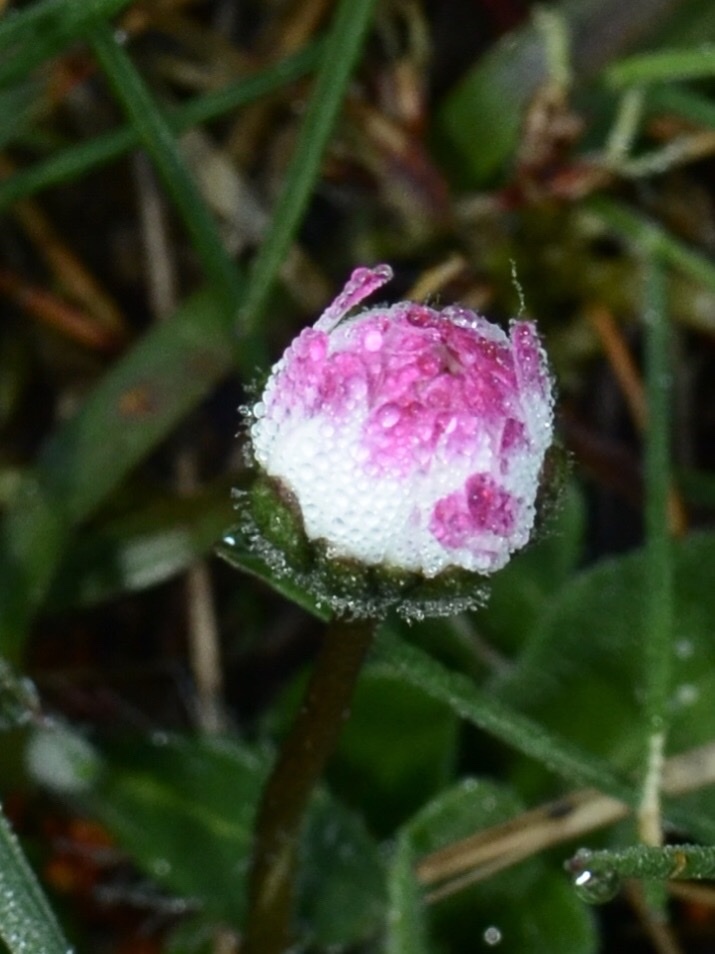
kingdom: Plantae
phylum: Tracheophyta
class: Magnoliopsida
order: Asterales
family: Asteraceae
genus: Bellis
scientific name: Bellis perennis
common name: Lawndaisy
